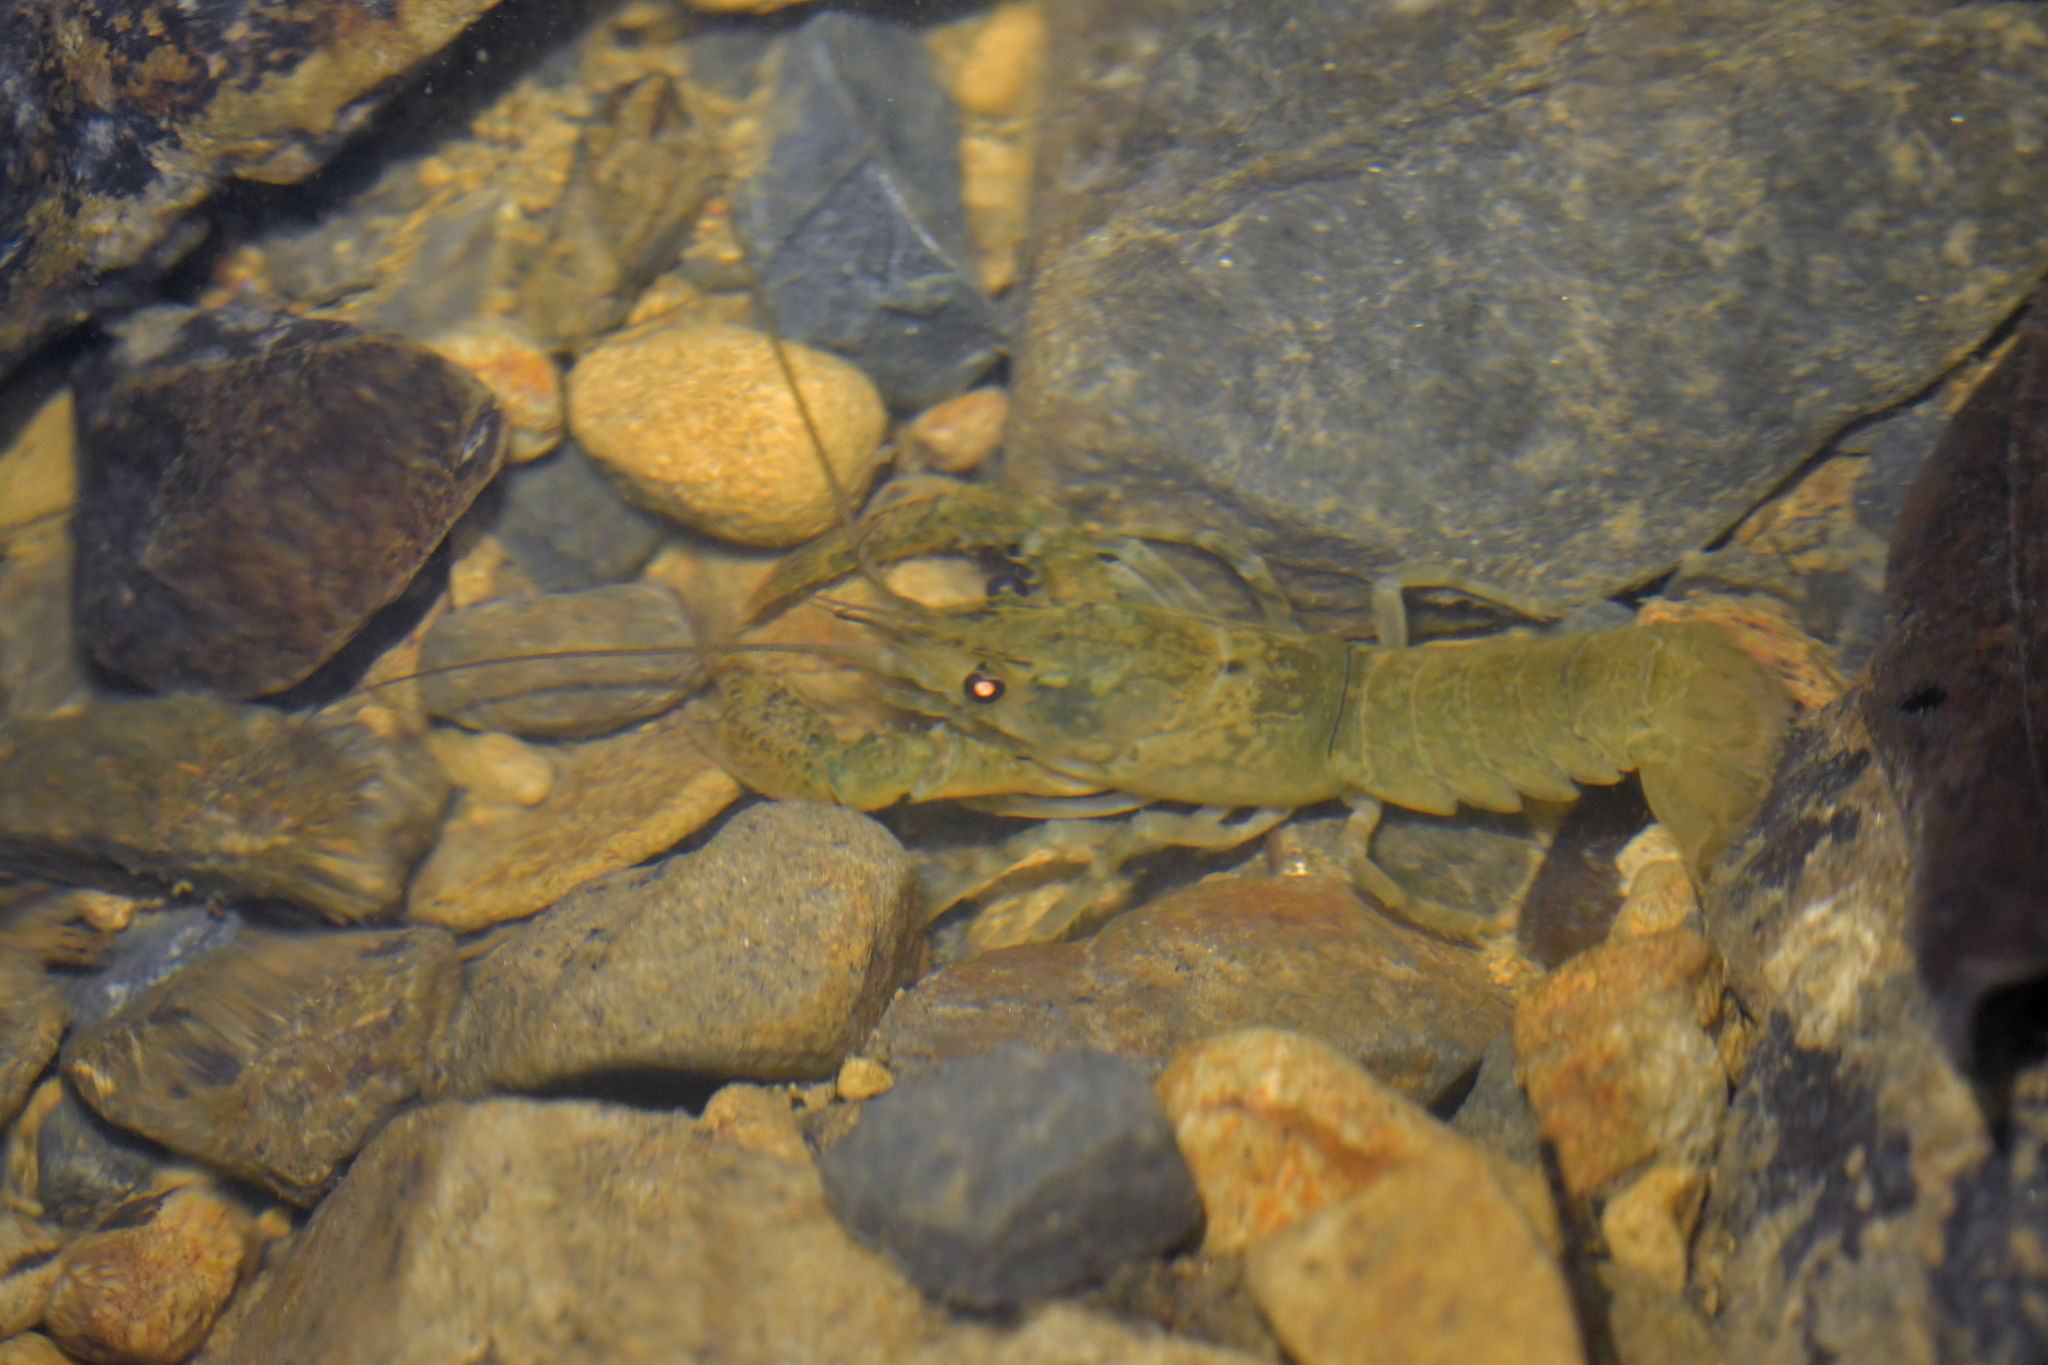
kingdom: Animalia
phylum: Arthropoda
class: Malacostraca
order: Decapoda
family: Parastacidae
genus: Paranephrops
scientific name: Paranephrops planifrons
